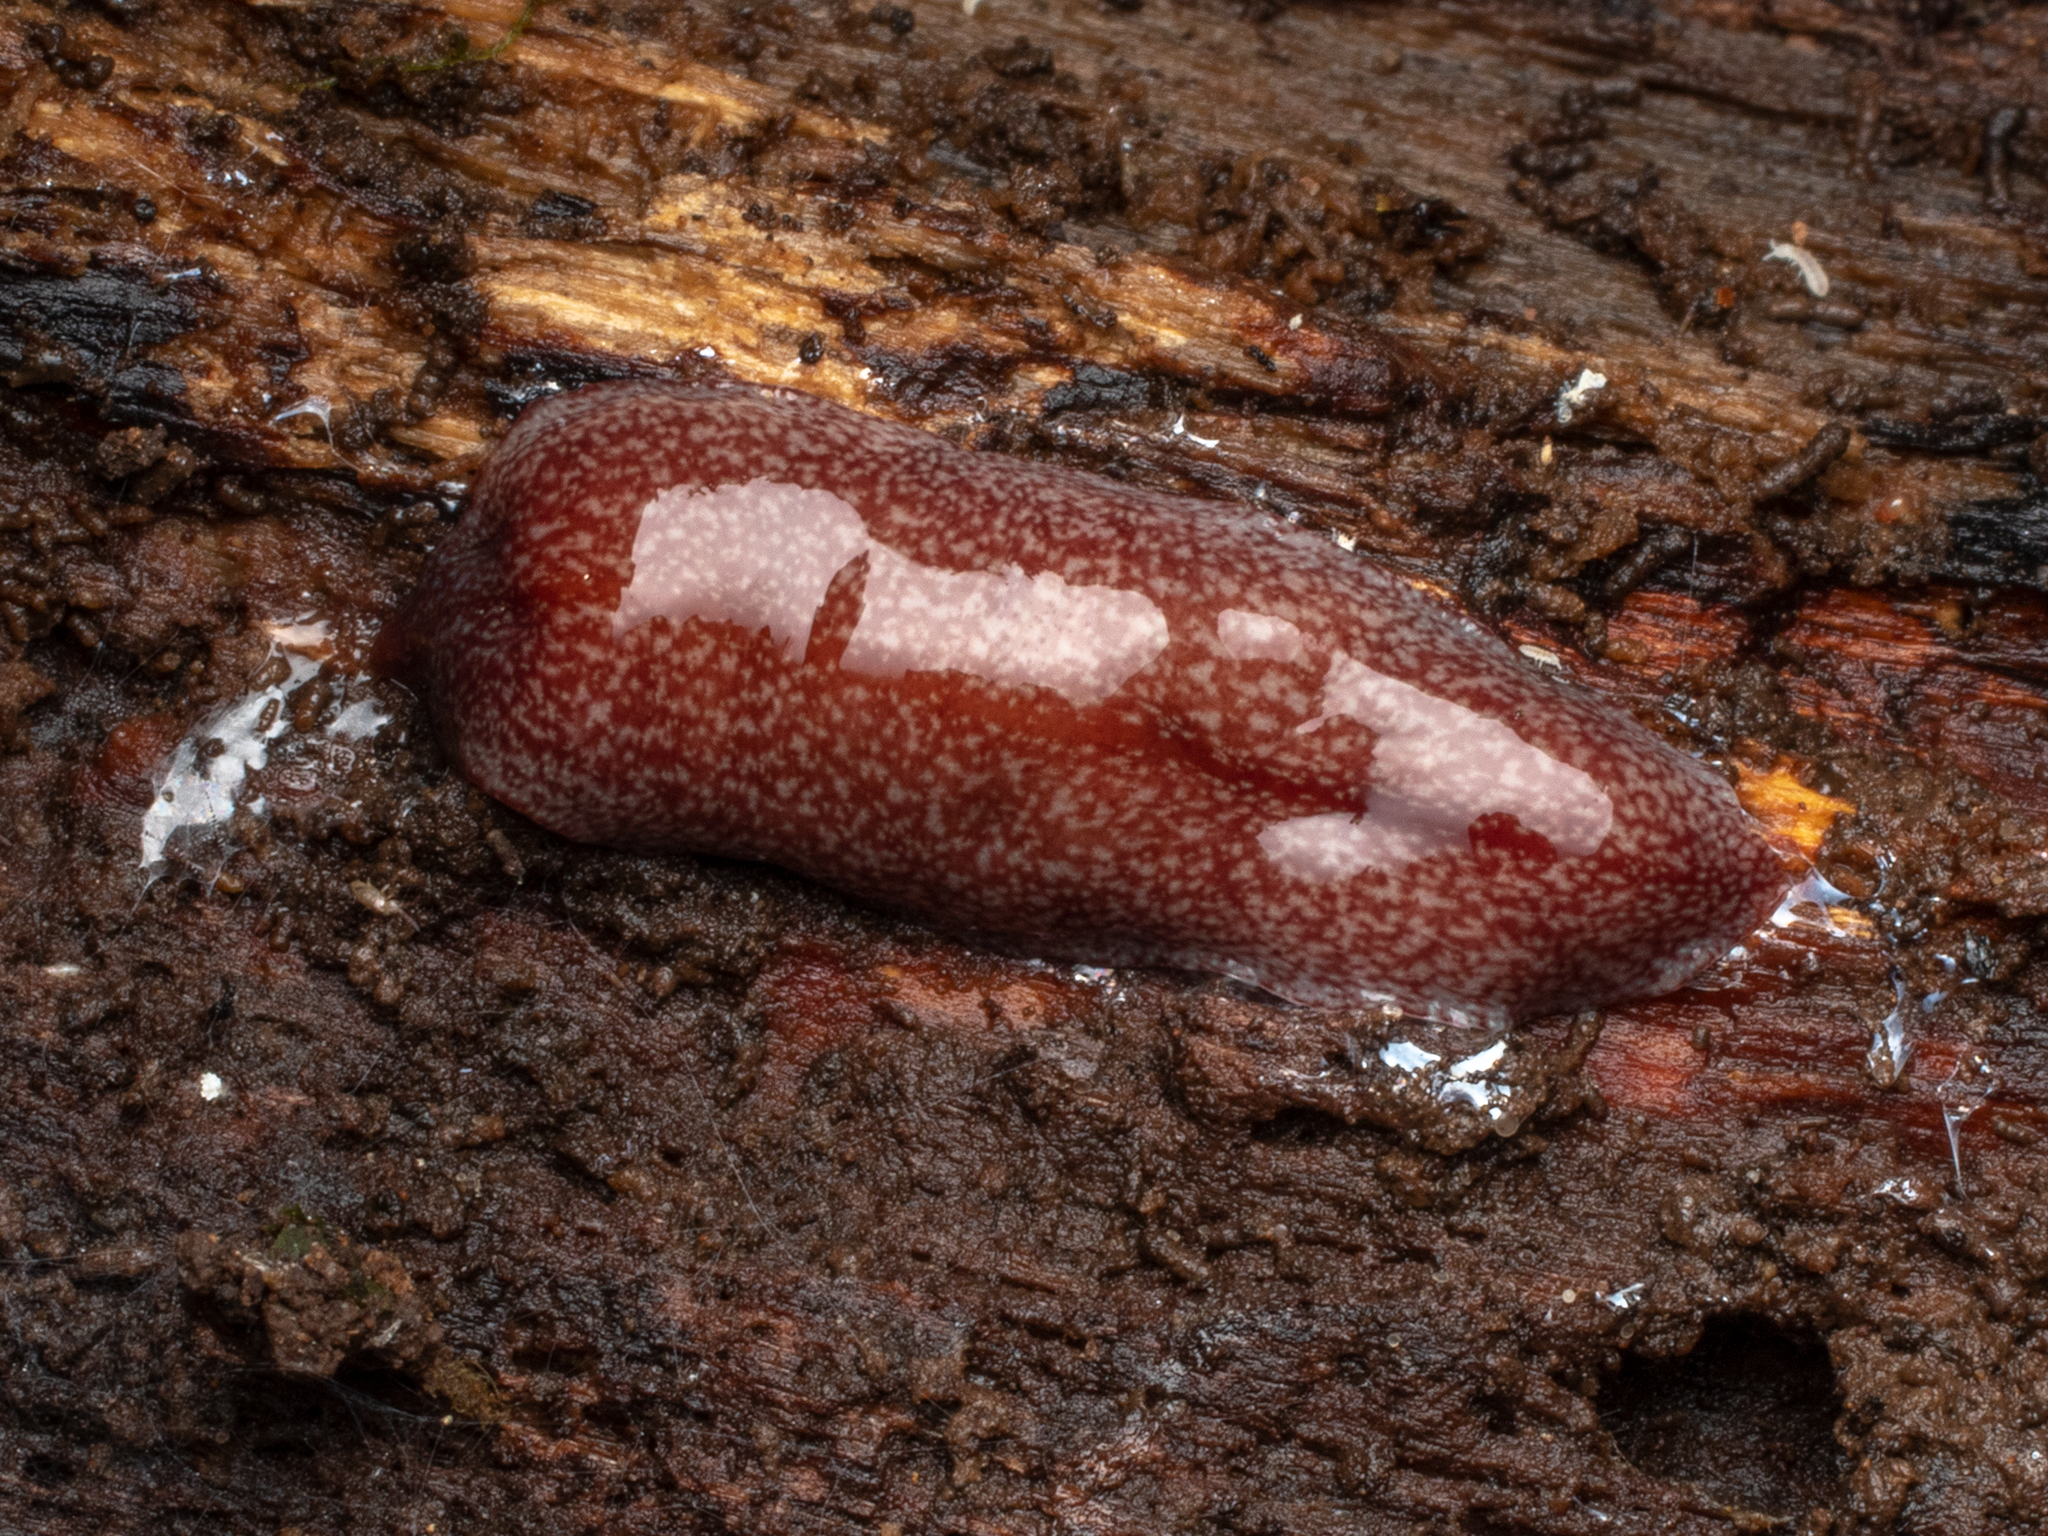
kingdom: Animalia
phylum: Platyhelminthes
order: Tricladida
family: Geoplanidae
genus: Australopacifica
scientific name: Australopacifica spectabilis
